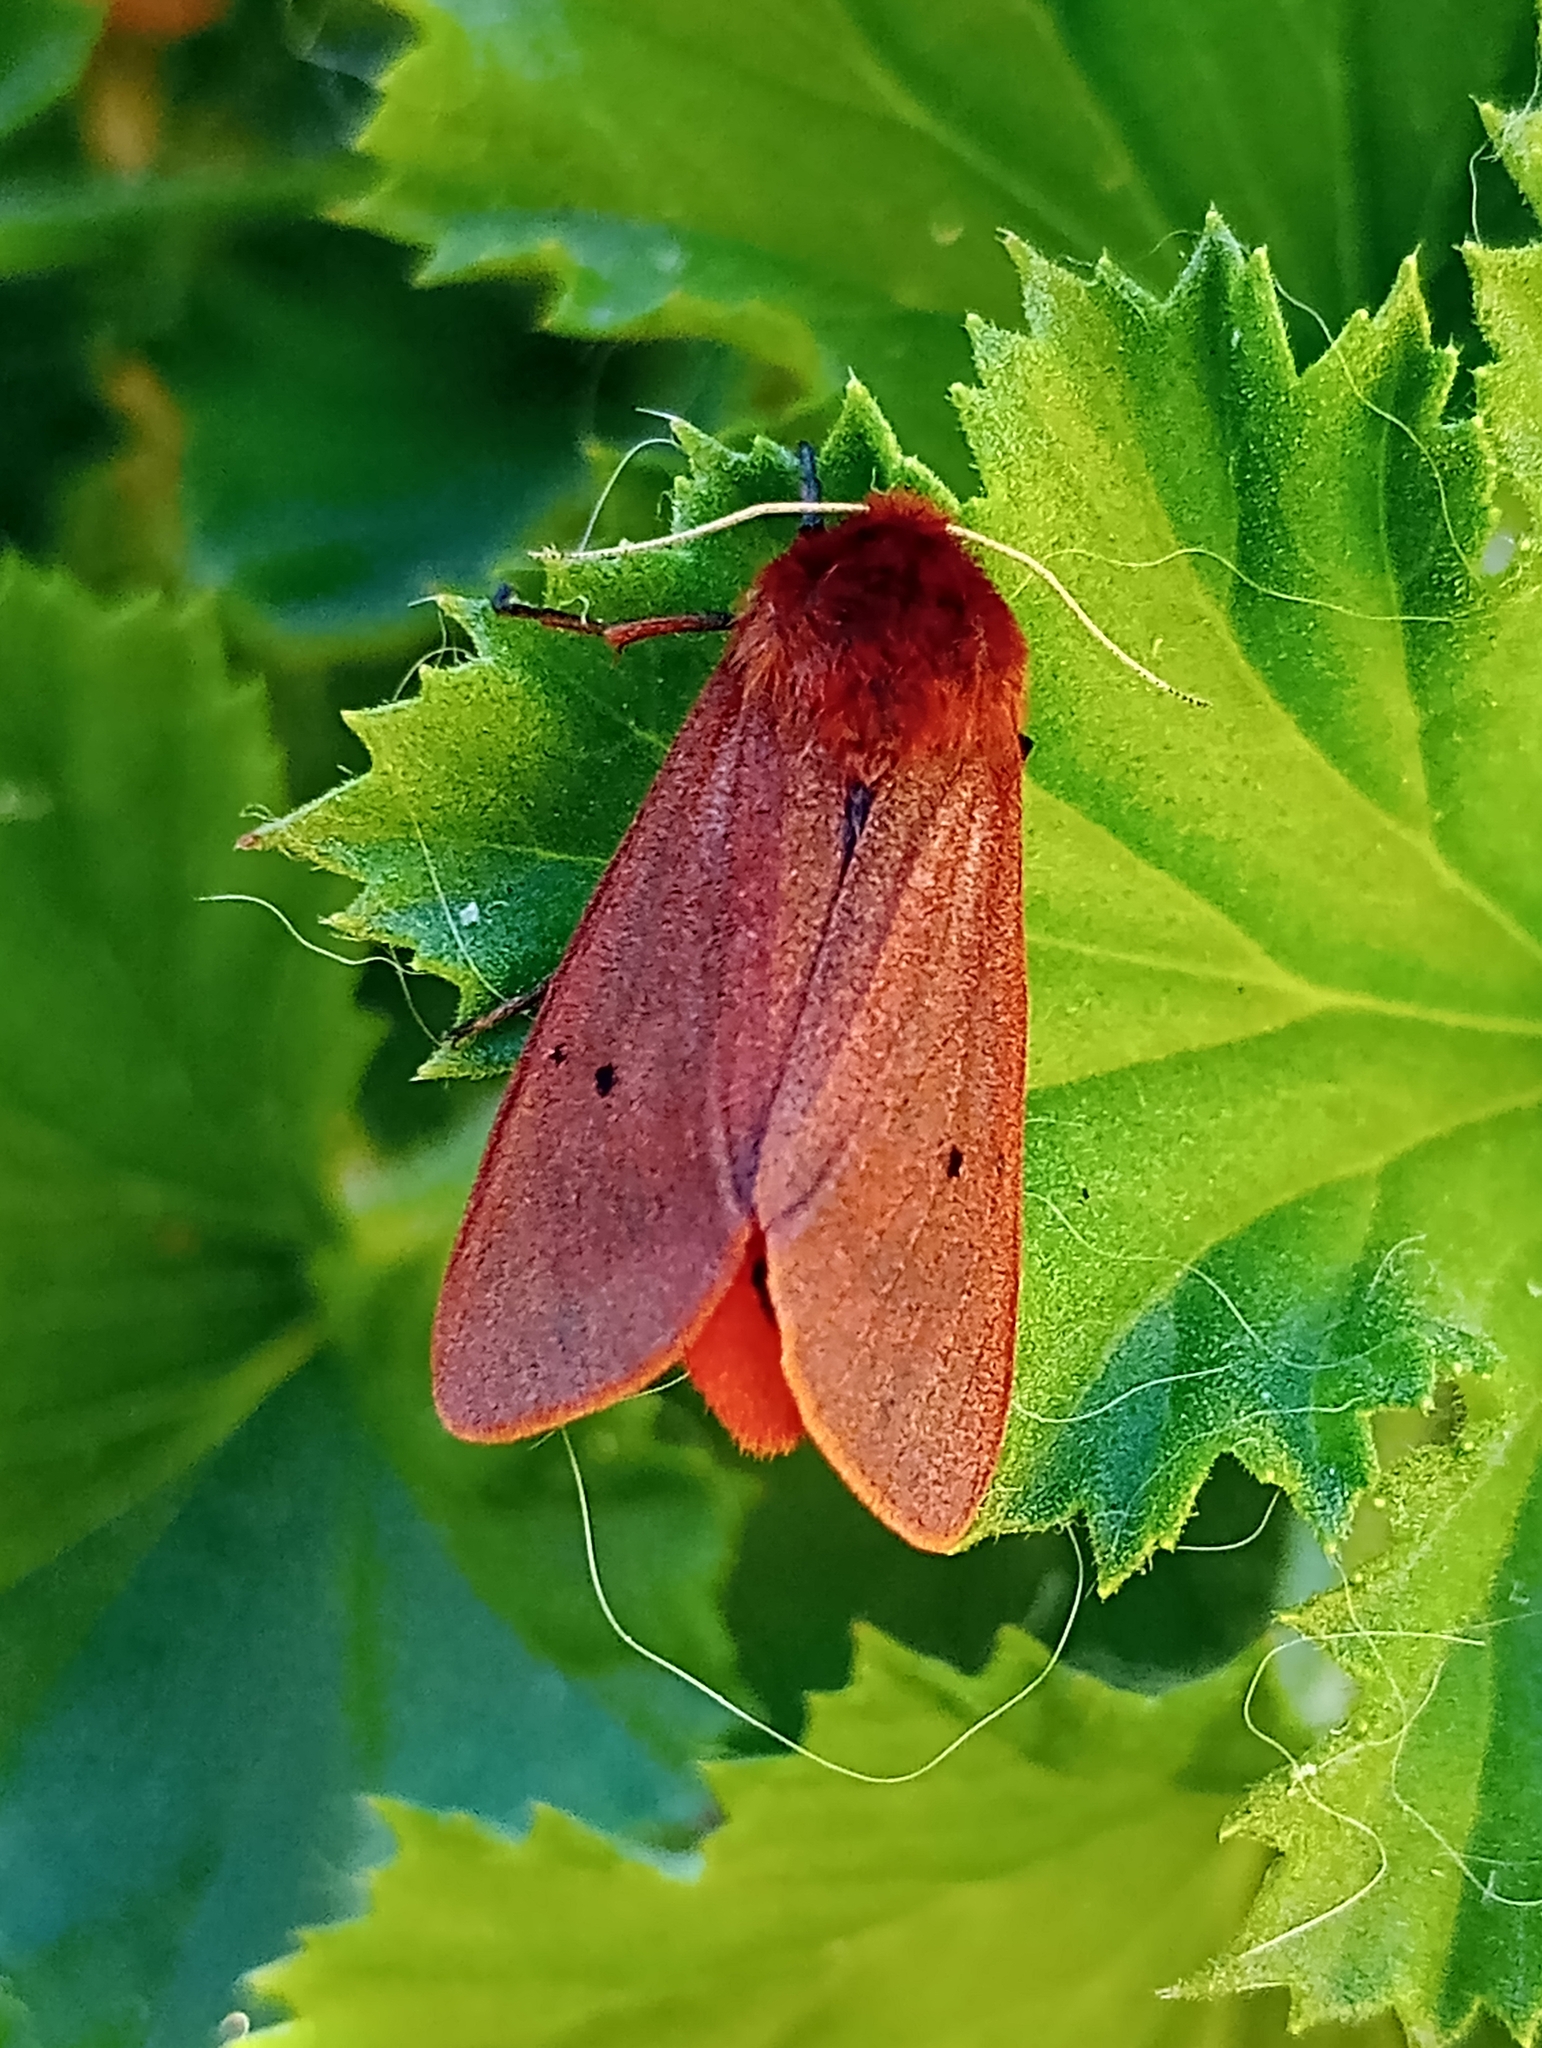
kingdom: Animalia
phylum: Arthropoda
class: Insecta
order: Lepidoptera
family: Erebidae
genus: Phragmatobia
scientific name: Phragmatobia fuliginosa
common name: Ruby tiger
